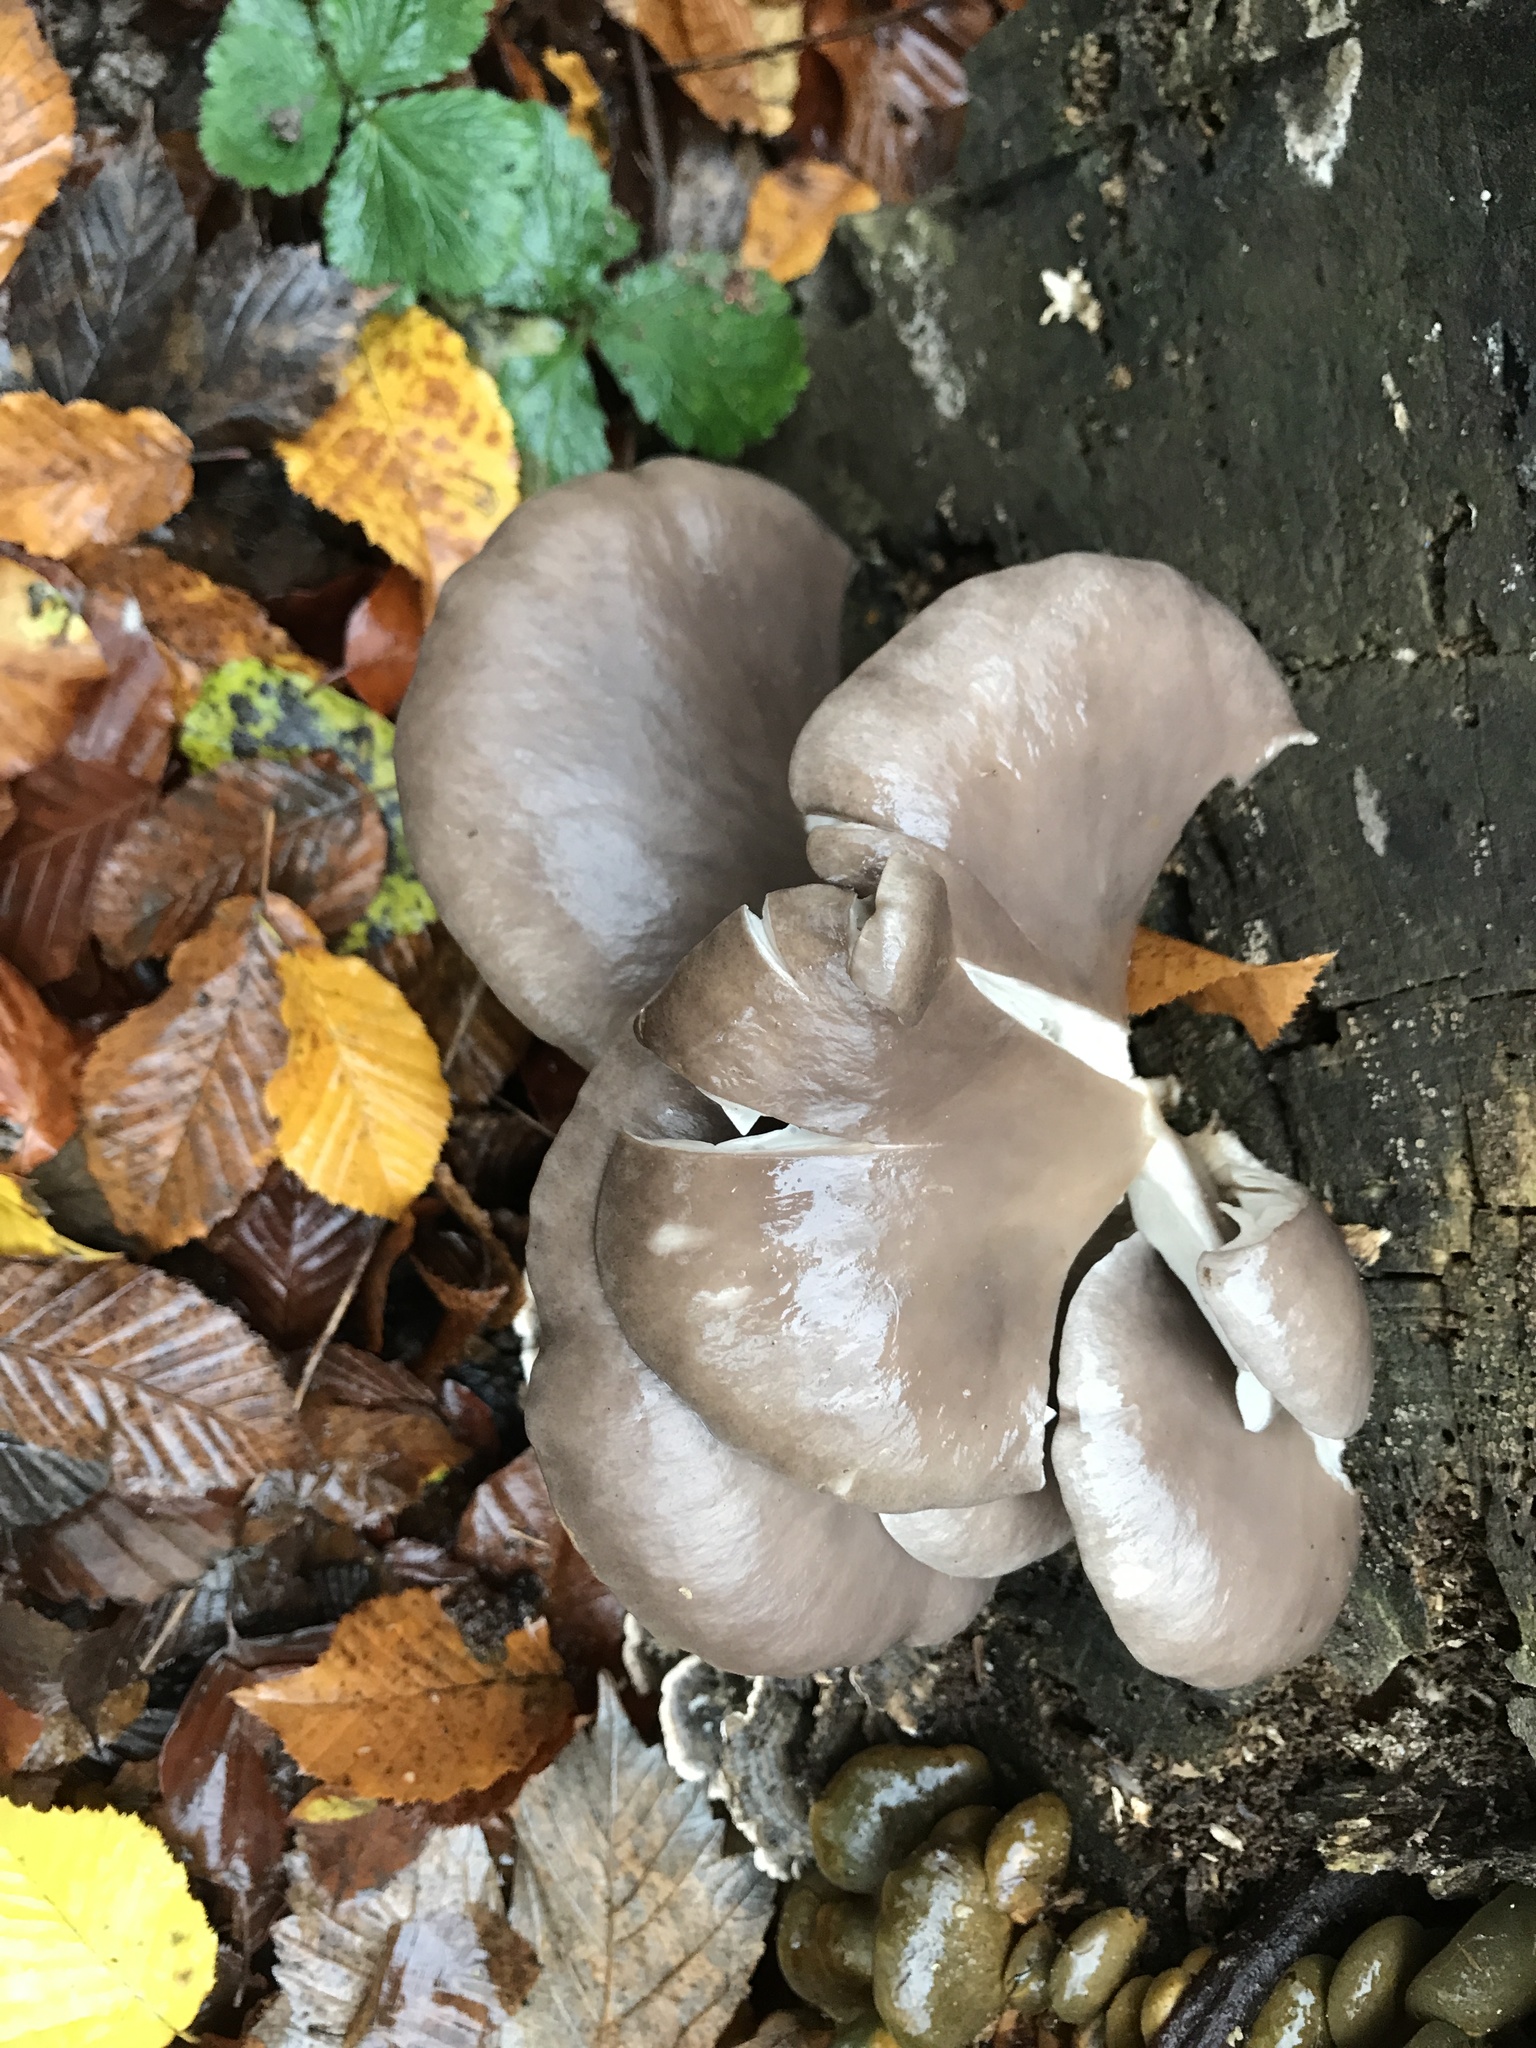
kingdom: Fungi
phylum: Basidiomycota
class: Agaricomycetes
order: Agaricales
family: Pleurotaceae
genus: Pleurotus
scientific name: Pleurotus ostreatus
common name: Oyster mushroom
